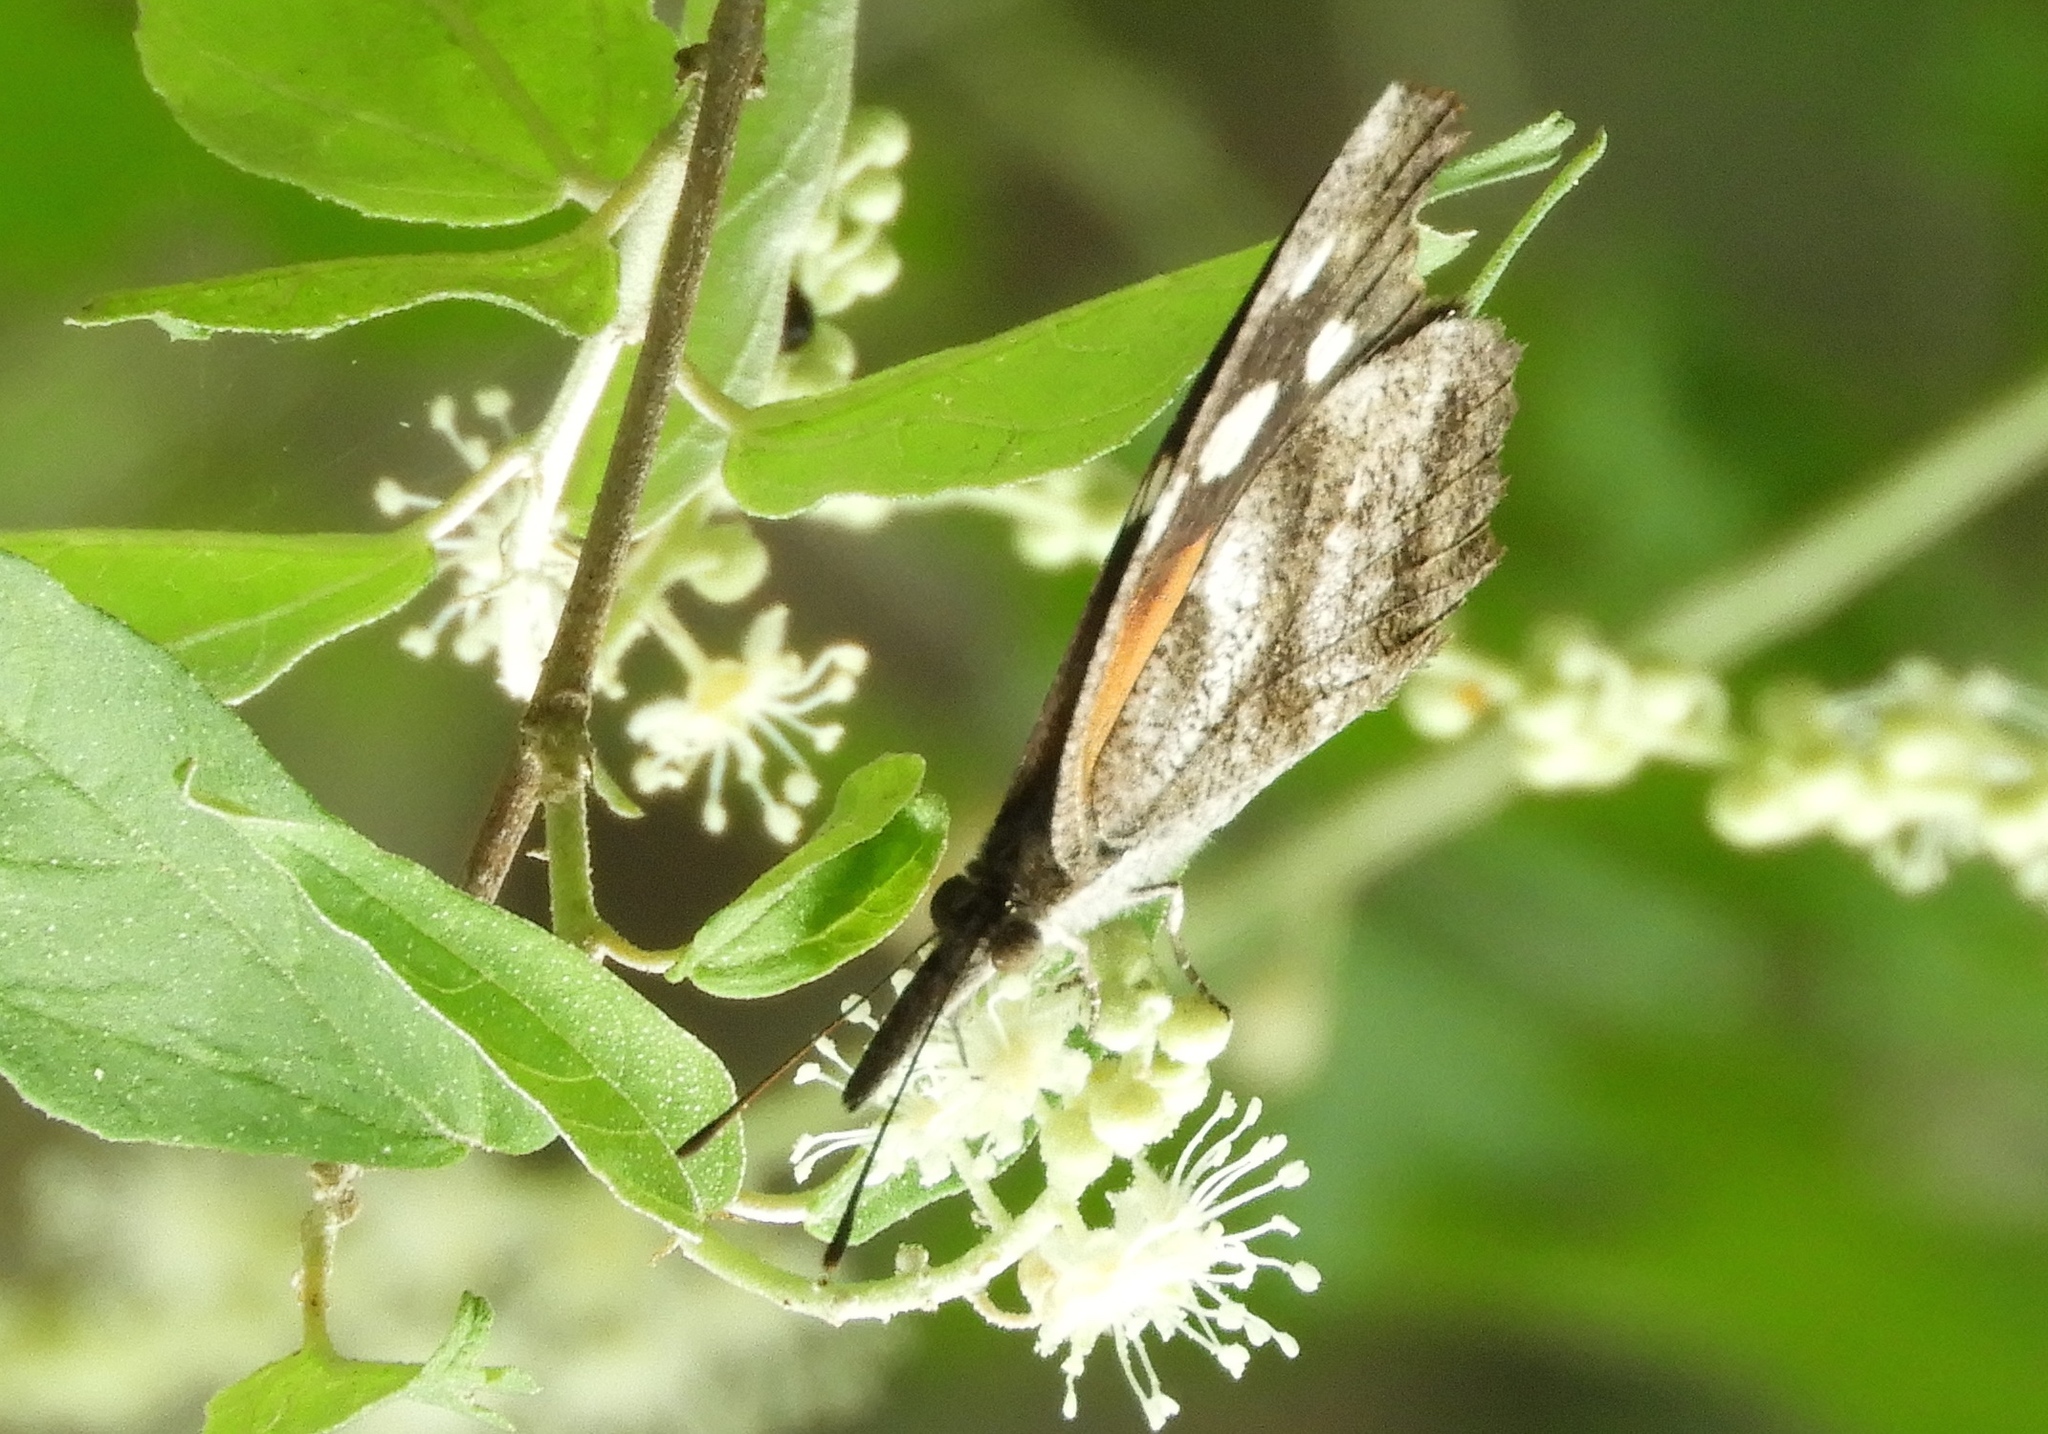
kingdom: Animalia
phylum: Arthropoda
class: Insecta
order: Lepidoptera
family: Nymphalidae
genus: Libytheana
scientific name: Libytheana carinenta
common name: American snout
